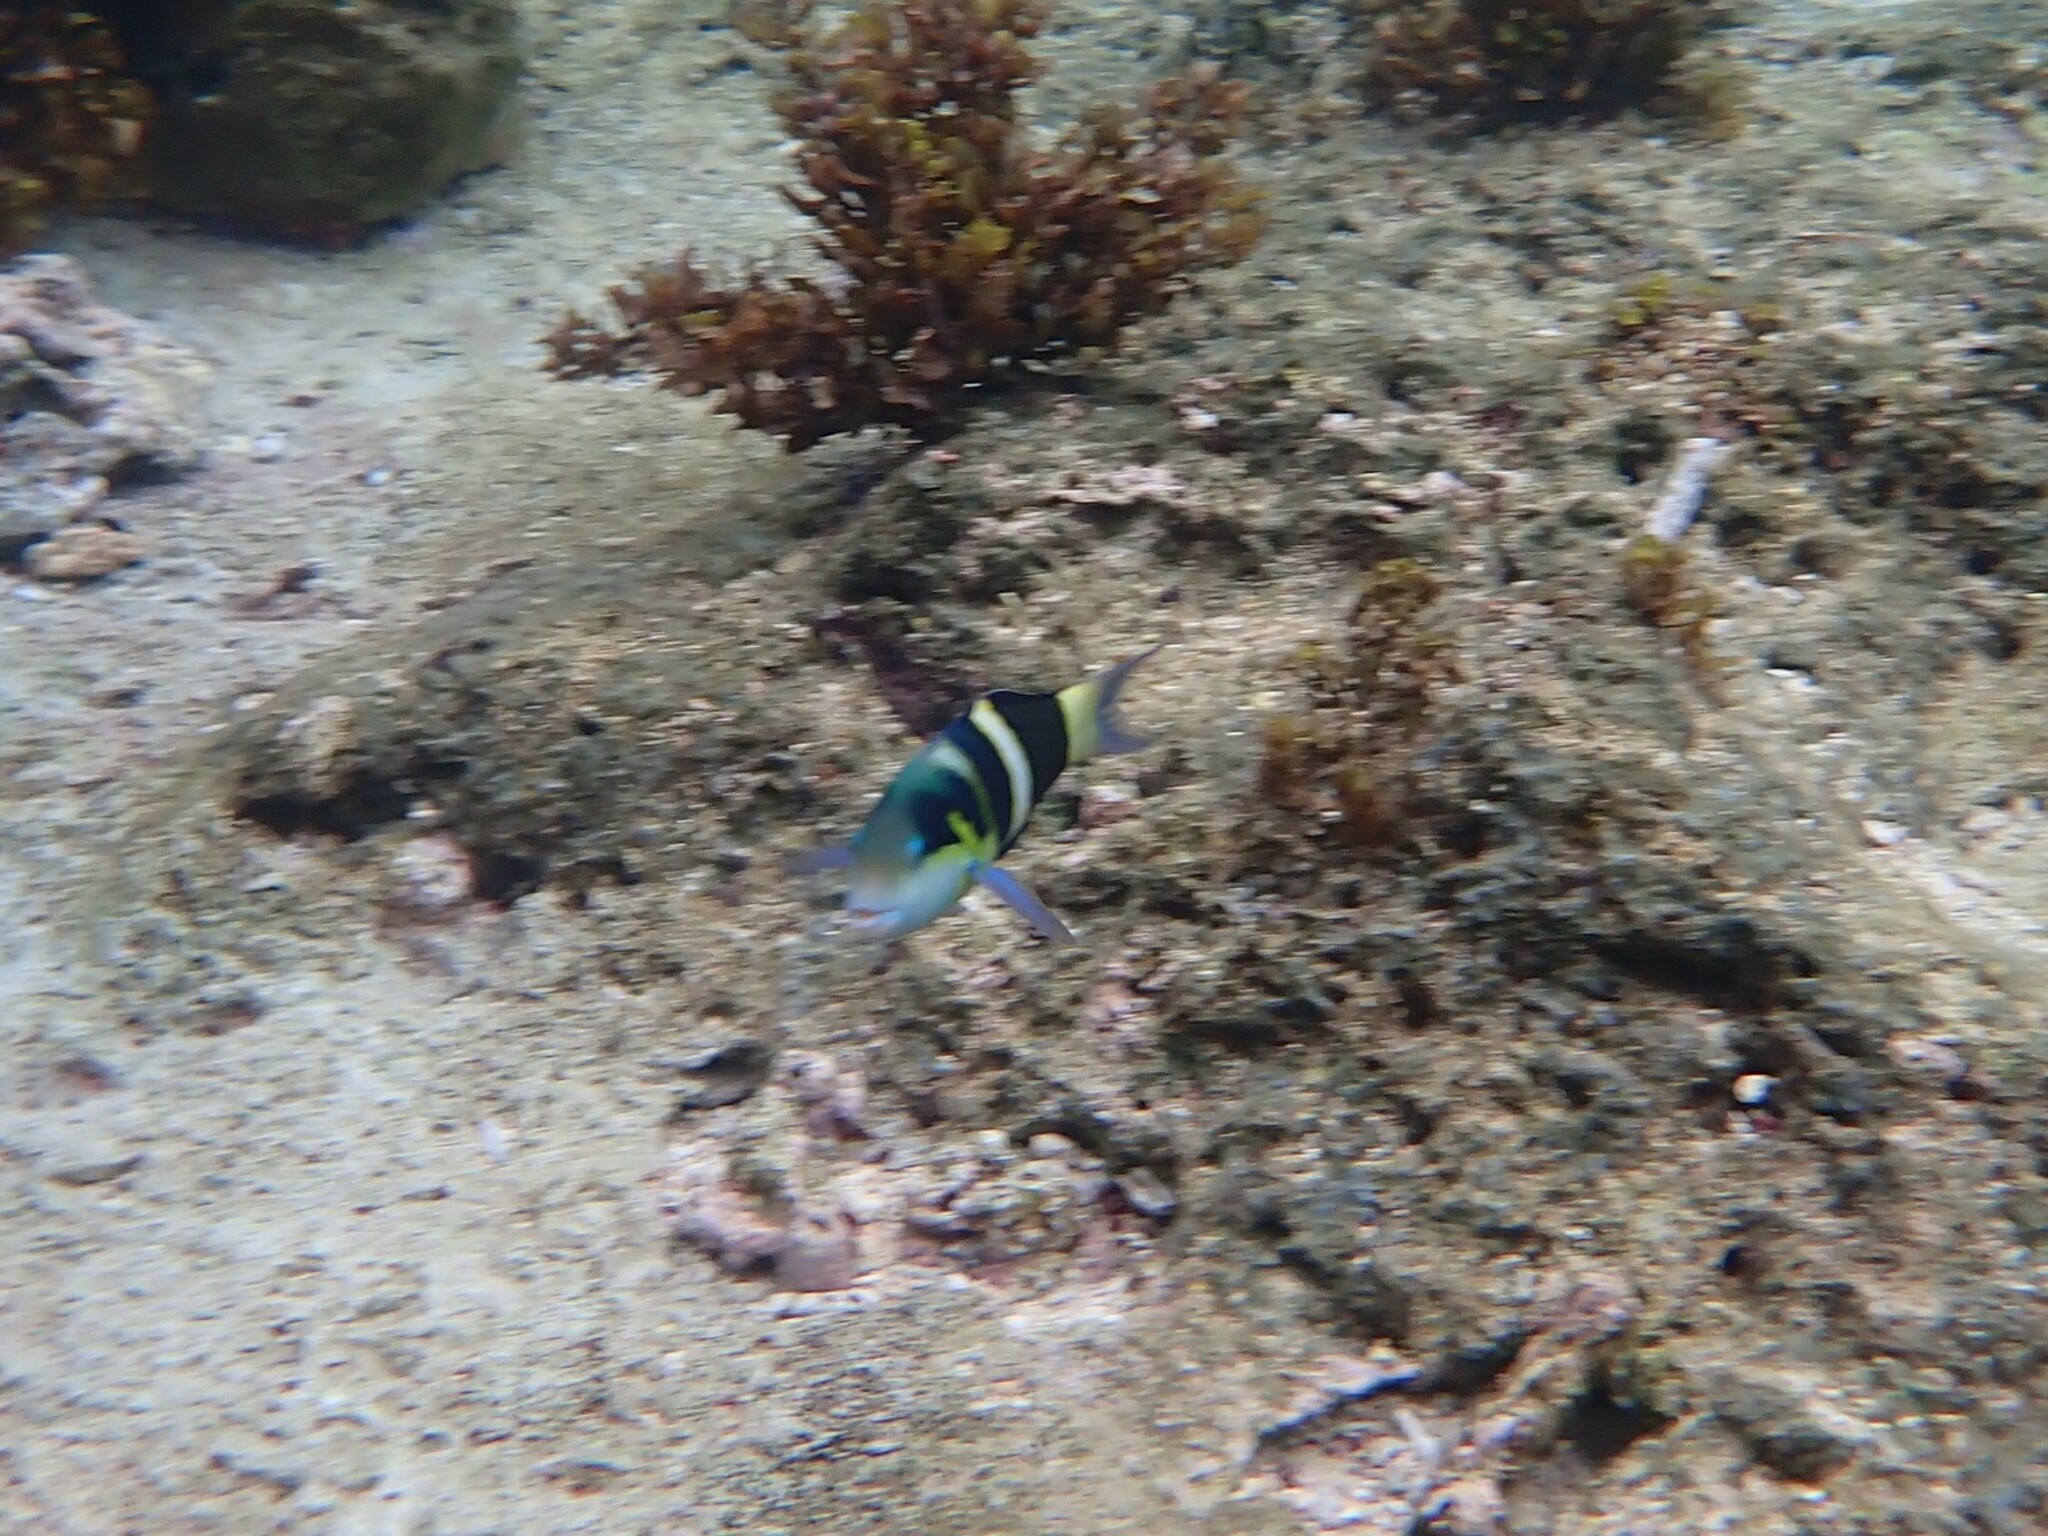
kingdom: Animalia
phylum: Chordata
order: Perciformes
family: Labridae
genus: Thalassoma
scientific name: Thalassoma nigrofasciatum
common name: Black-barred wrasse
